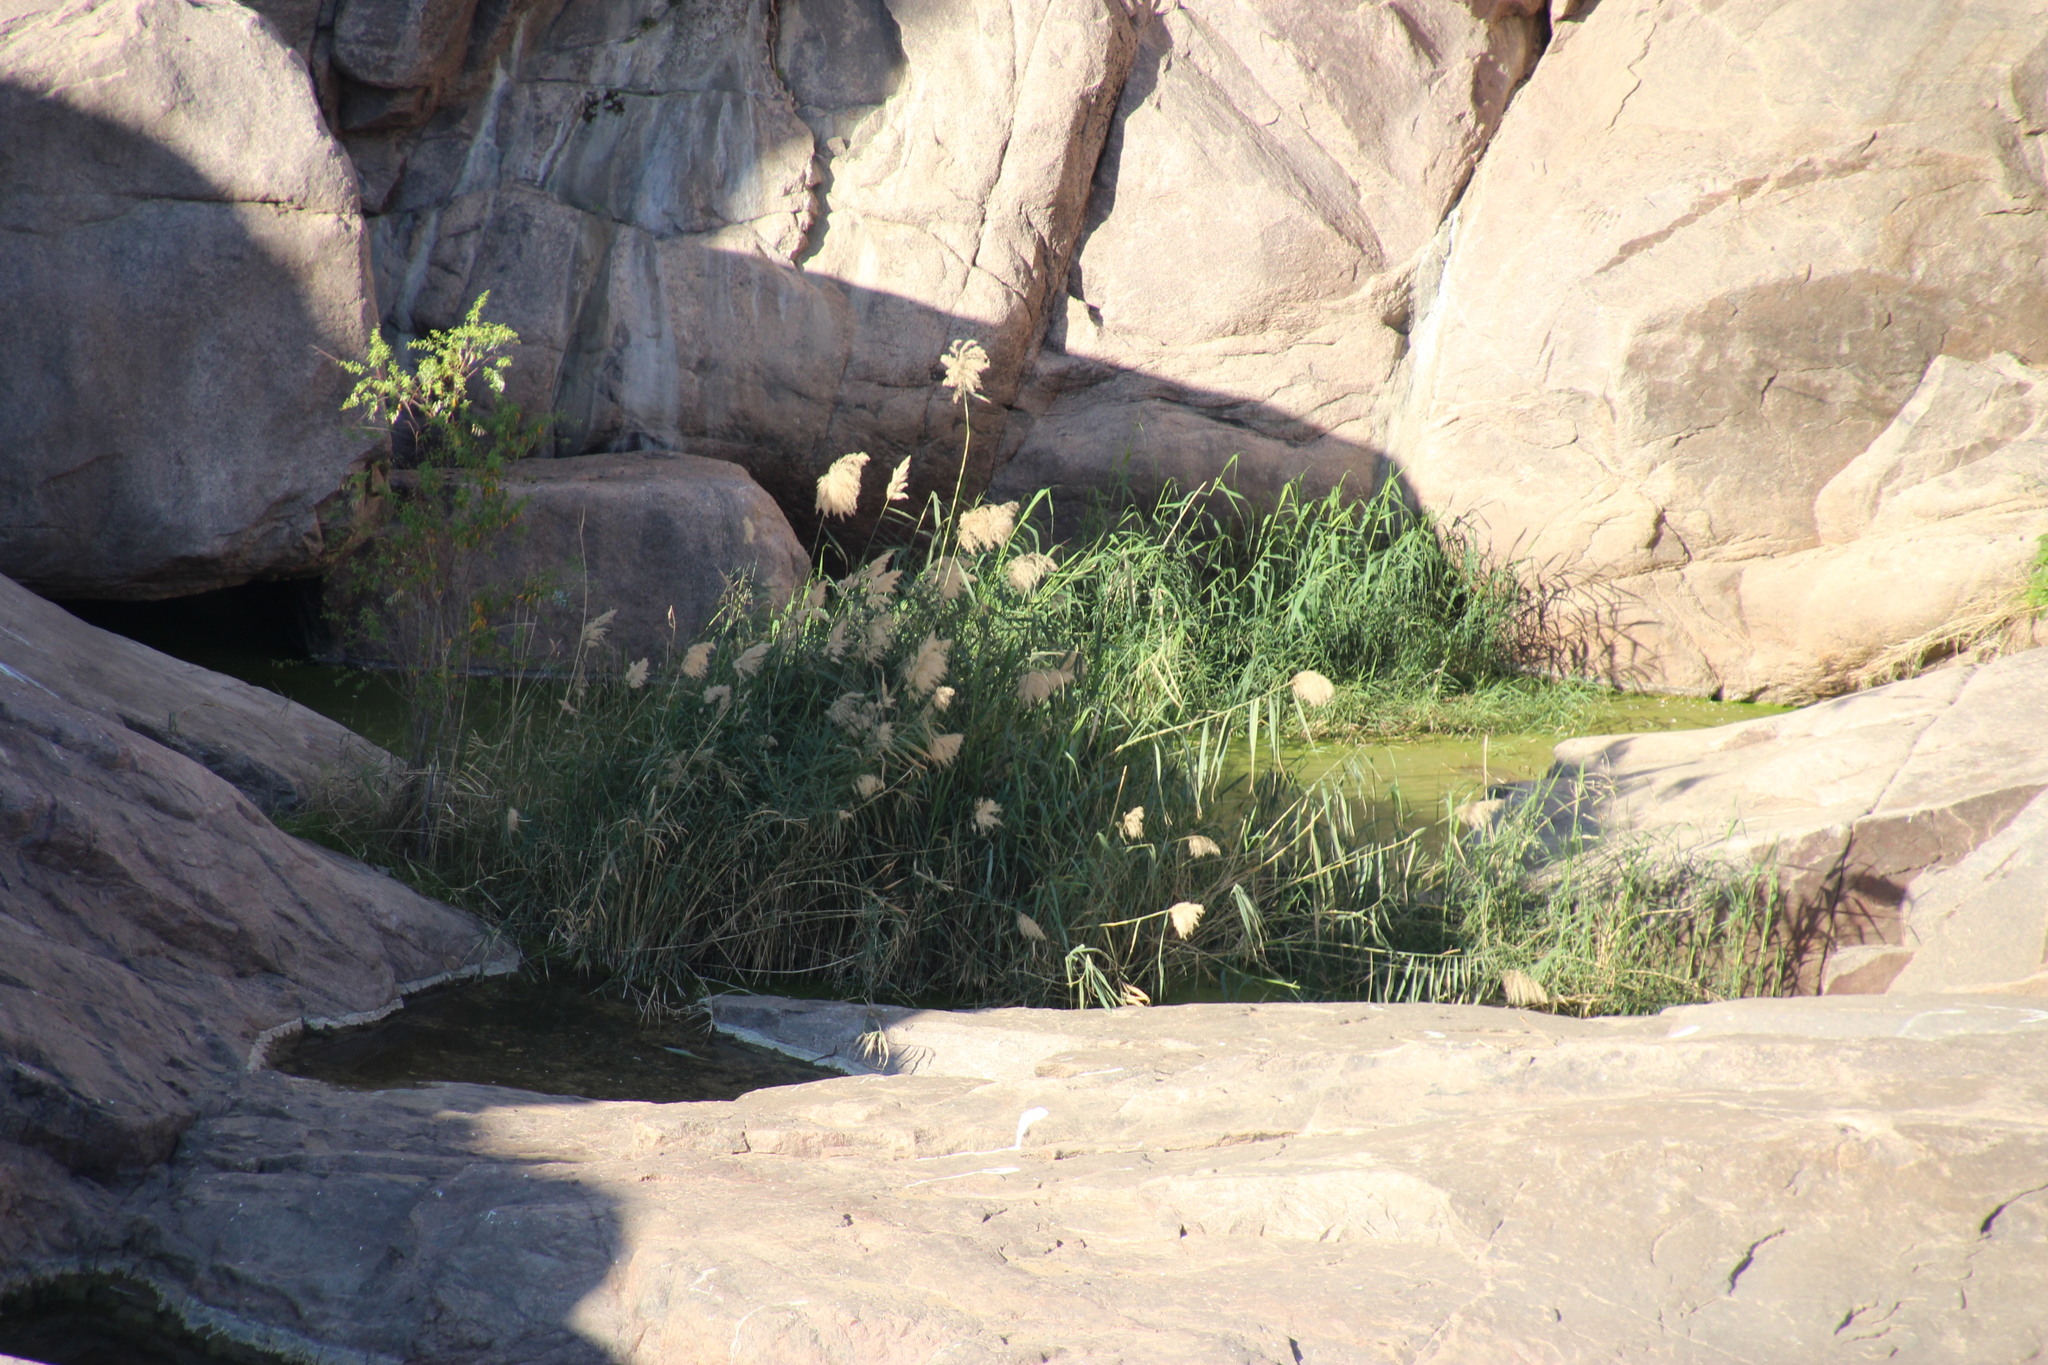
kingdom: Plantae
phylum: Tracheophyta
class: Liliopsida
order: Poales
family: Poaceae
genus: Phragmites
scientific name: Phragmites australis
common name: Common reed
